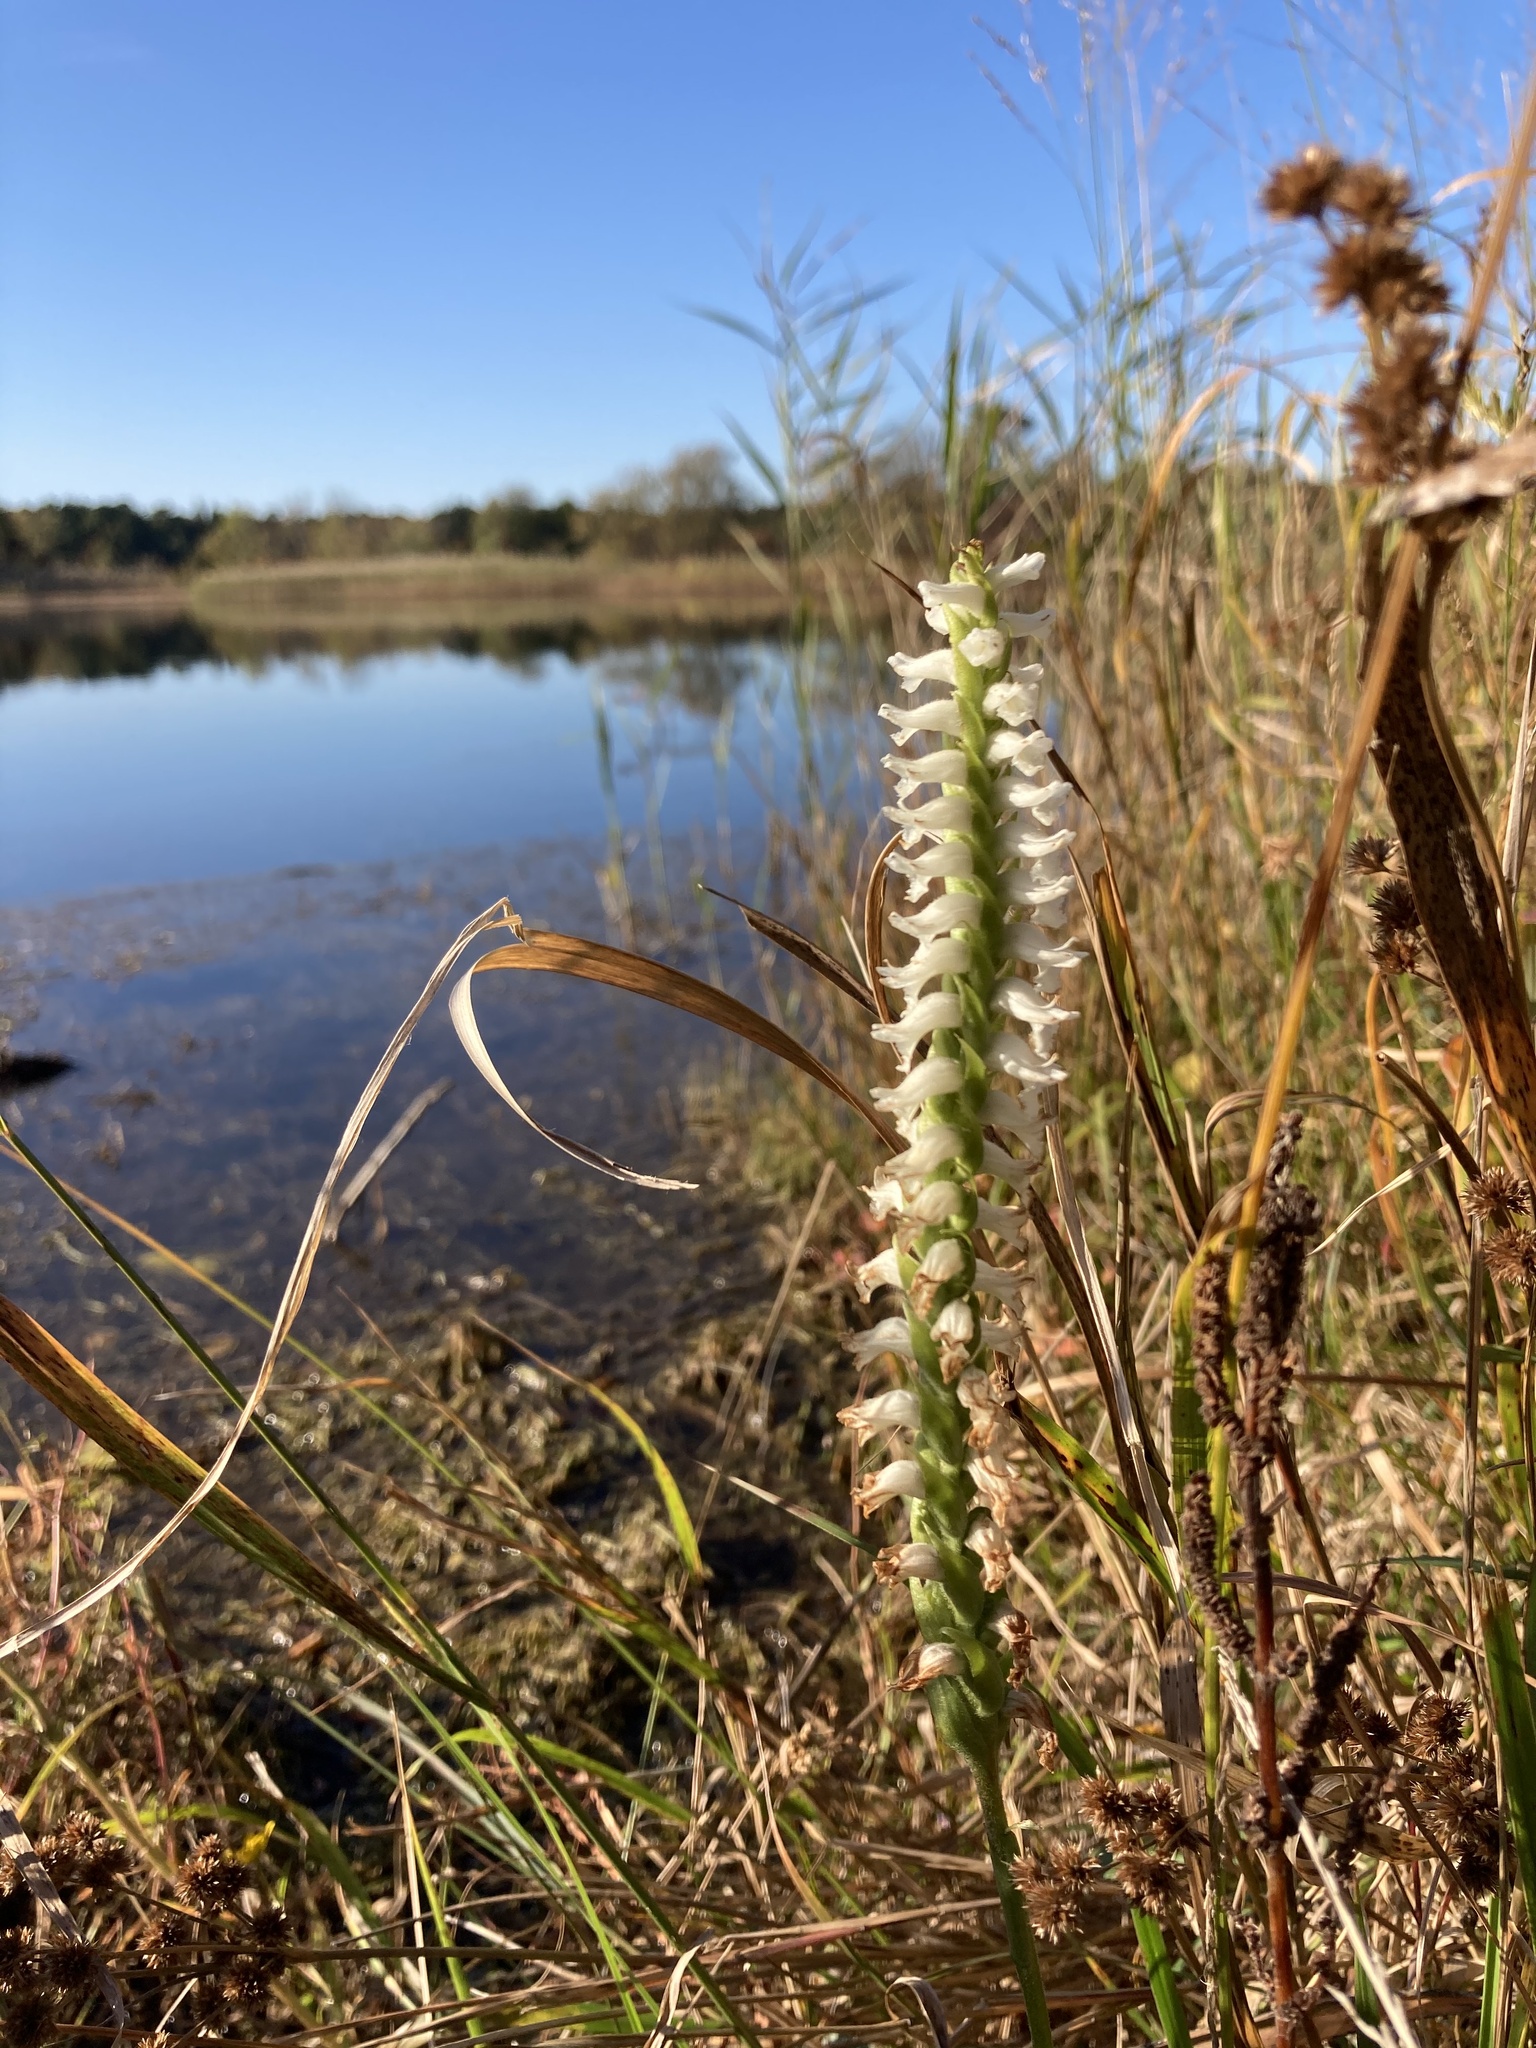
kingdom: Plantae
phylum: Tracheophyta
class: Liliopsida
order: Asparagales
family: Orchidaceae
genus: Spiranthes
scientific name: Spiranthes bightensis
